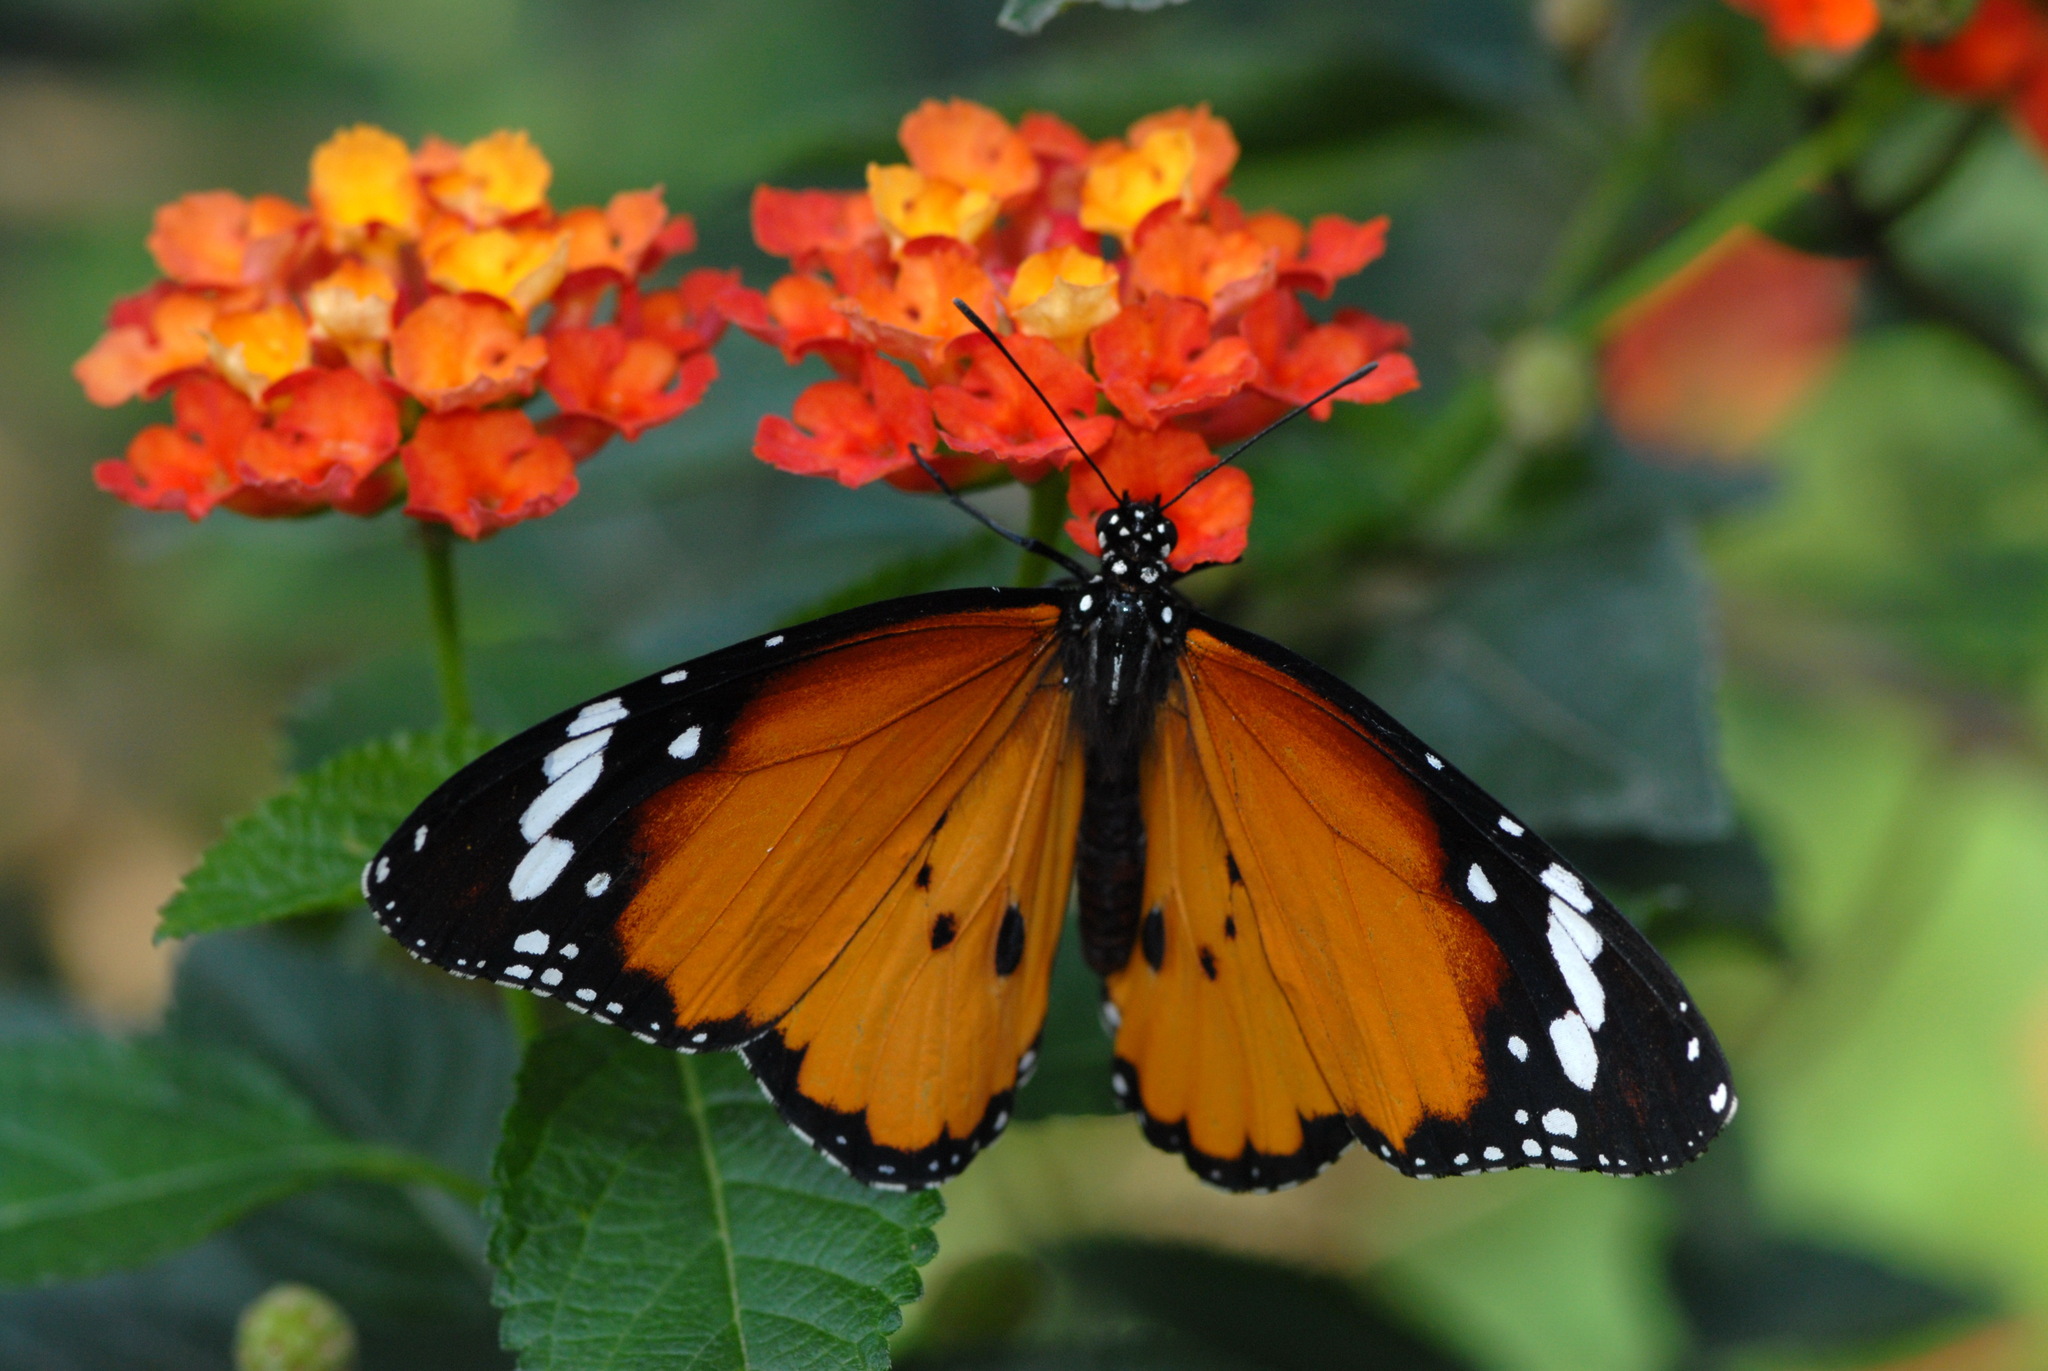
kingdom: Animalia
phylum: Arthropoda
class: Insecta
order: Lepidoptera
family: Nymphalidae
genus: Danaus
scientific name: Danaus chrysippus
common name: Plain tiger
